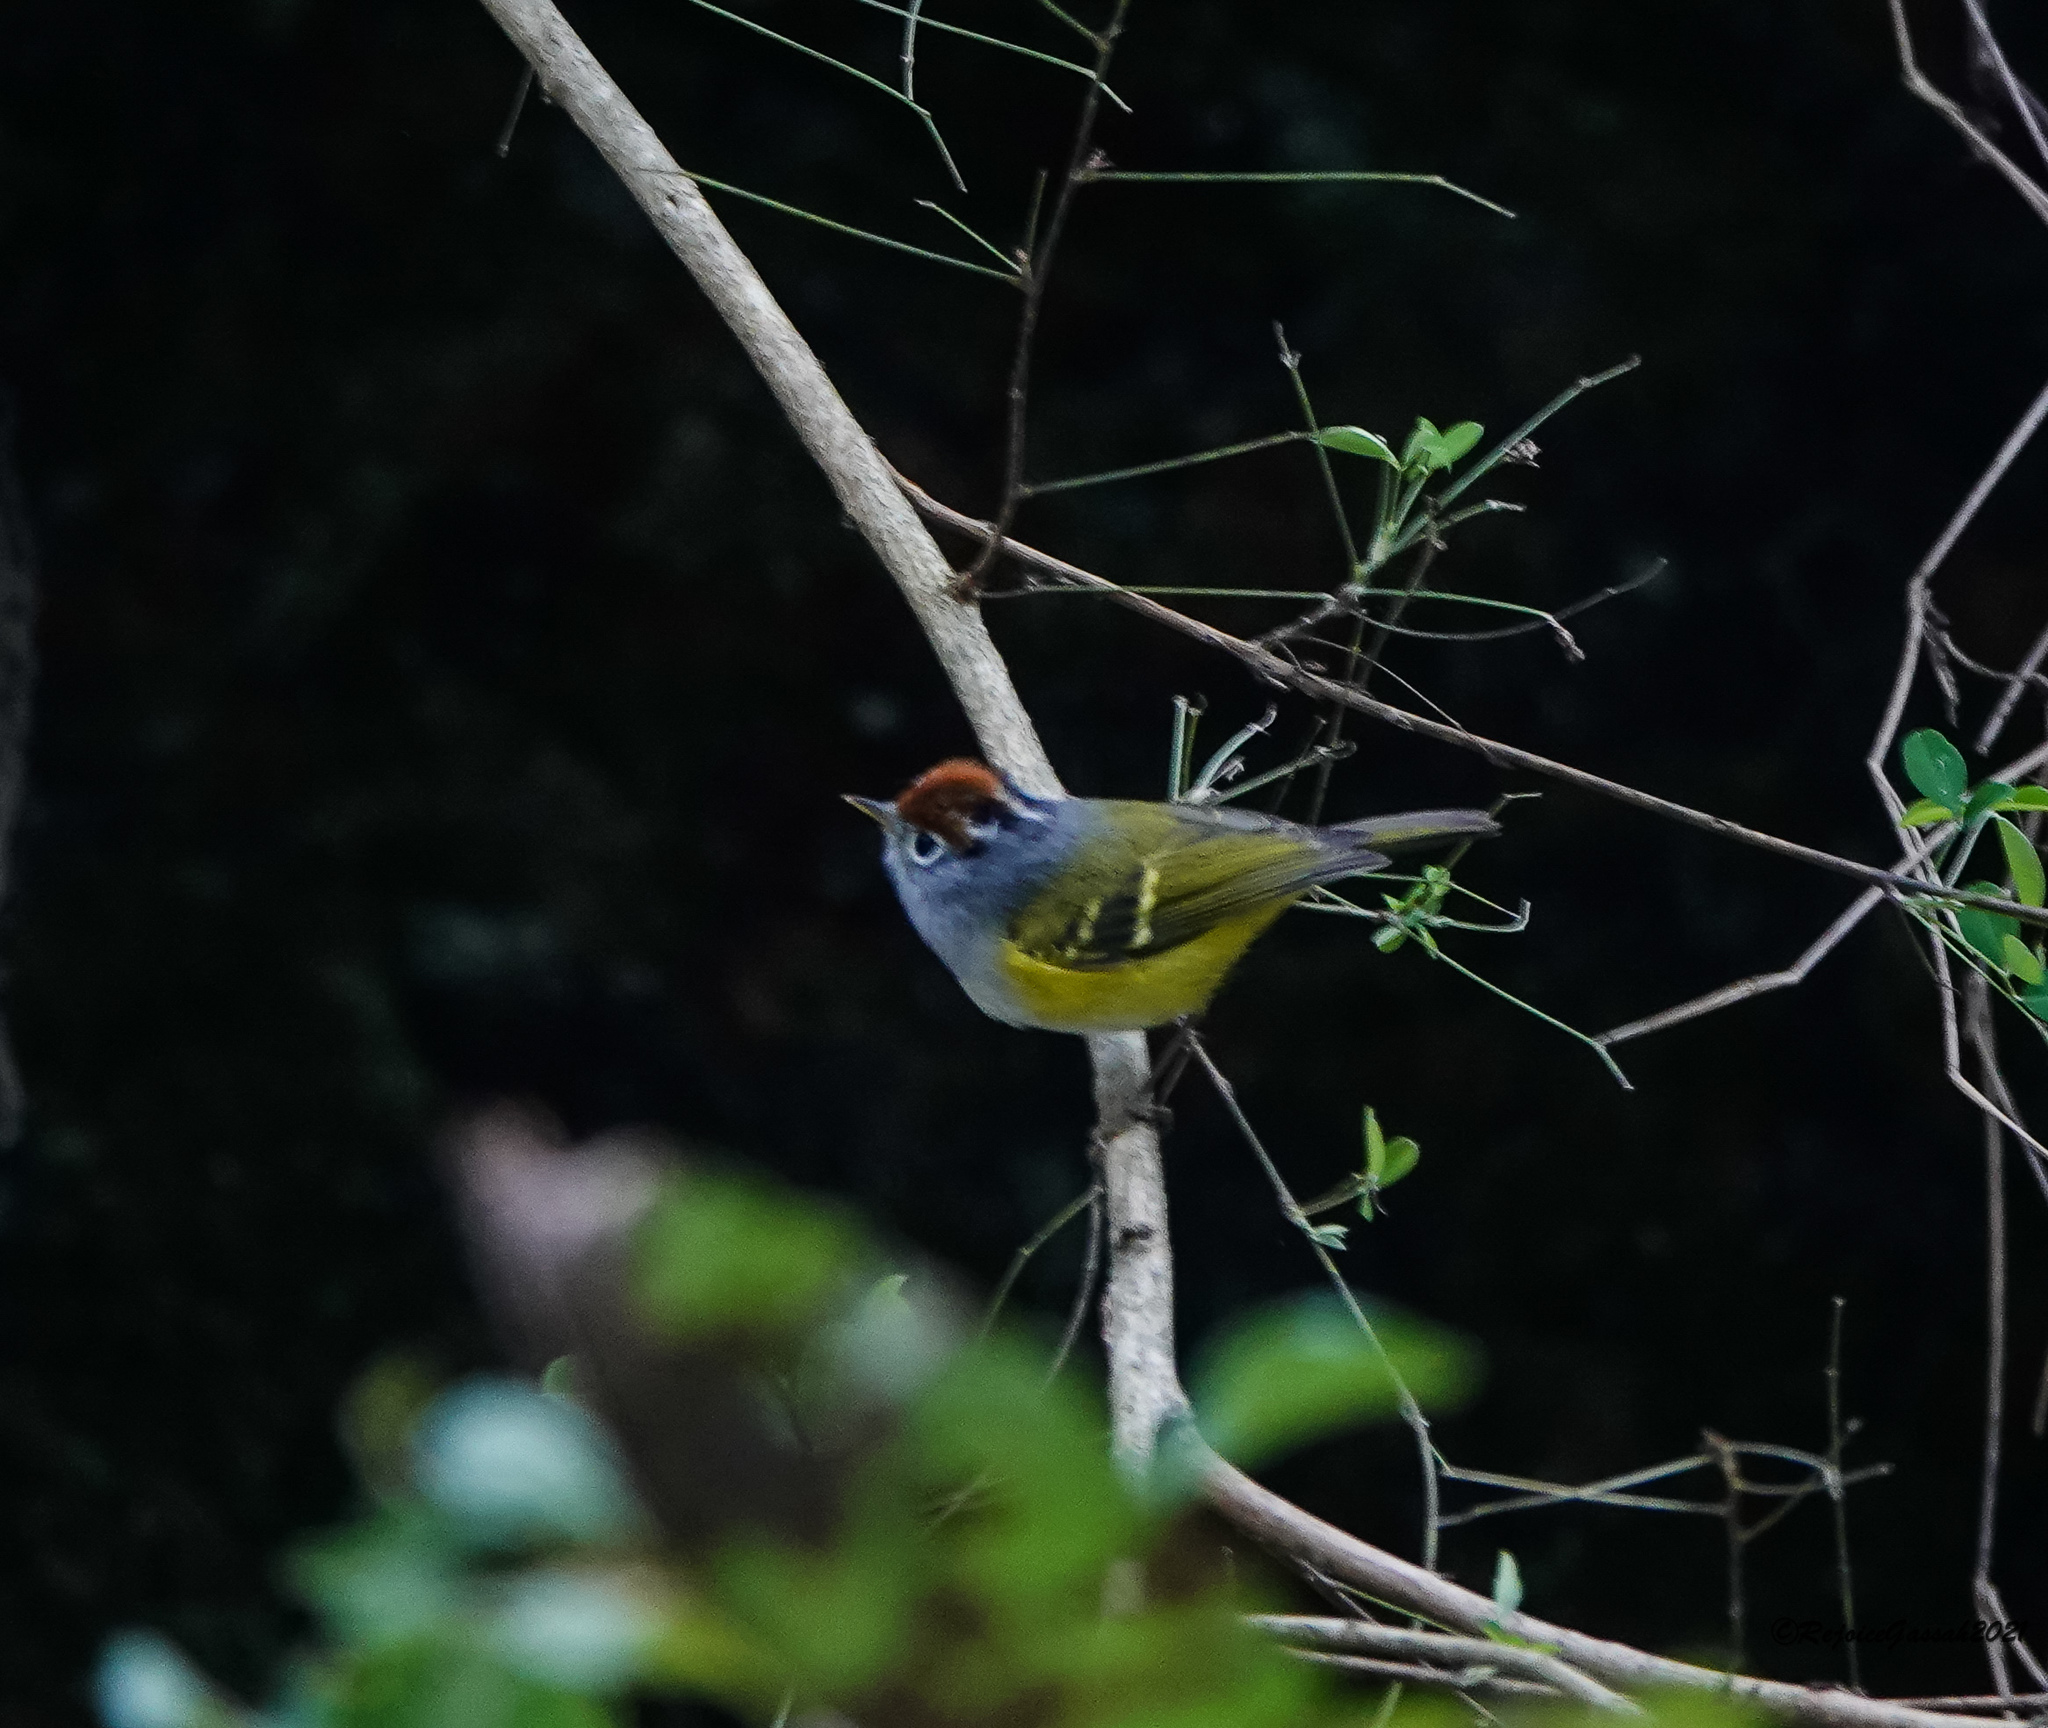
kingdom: Animalia
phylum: Chordata
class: Aves
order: Passeriformes
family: Phylloscopidae
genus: Seicercus
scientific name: Seicercus castaniceps
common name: Chestnut-crowned warbler
